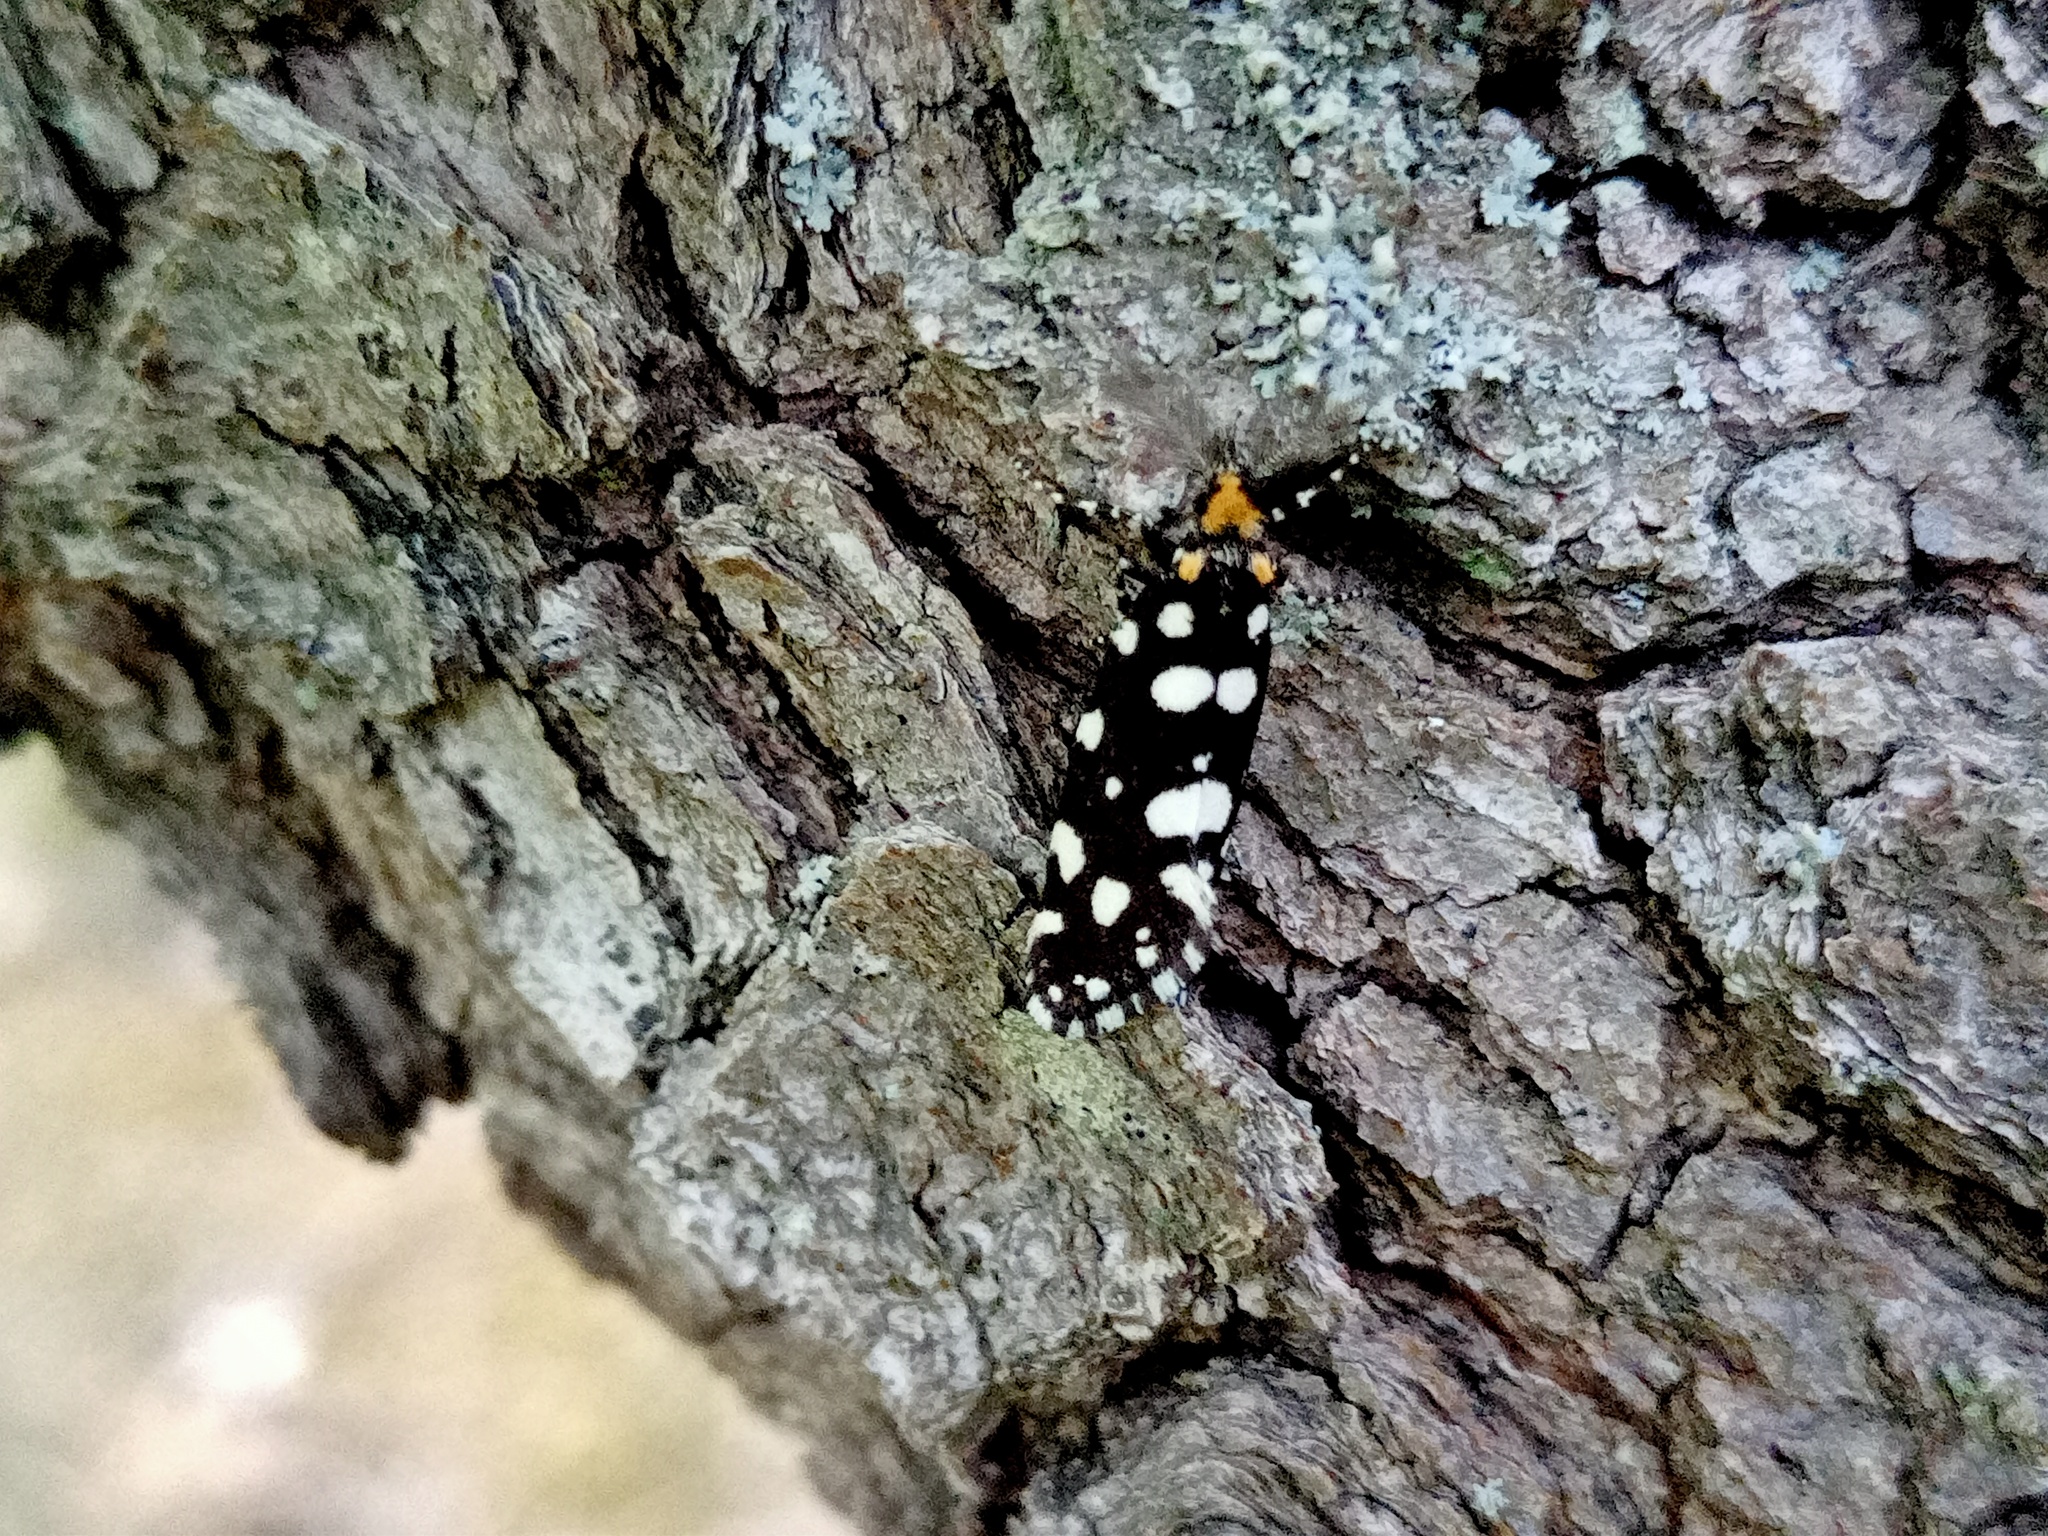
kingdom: Animalia
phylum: Arthropoda
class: Insecta
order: Lepidoptera
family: Tineidae
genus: Euplocamus
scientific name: Euplocamus anthracinalis
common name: Black clothes
